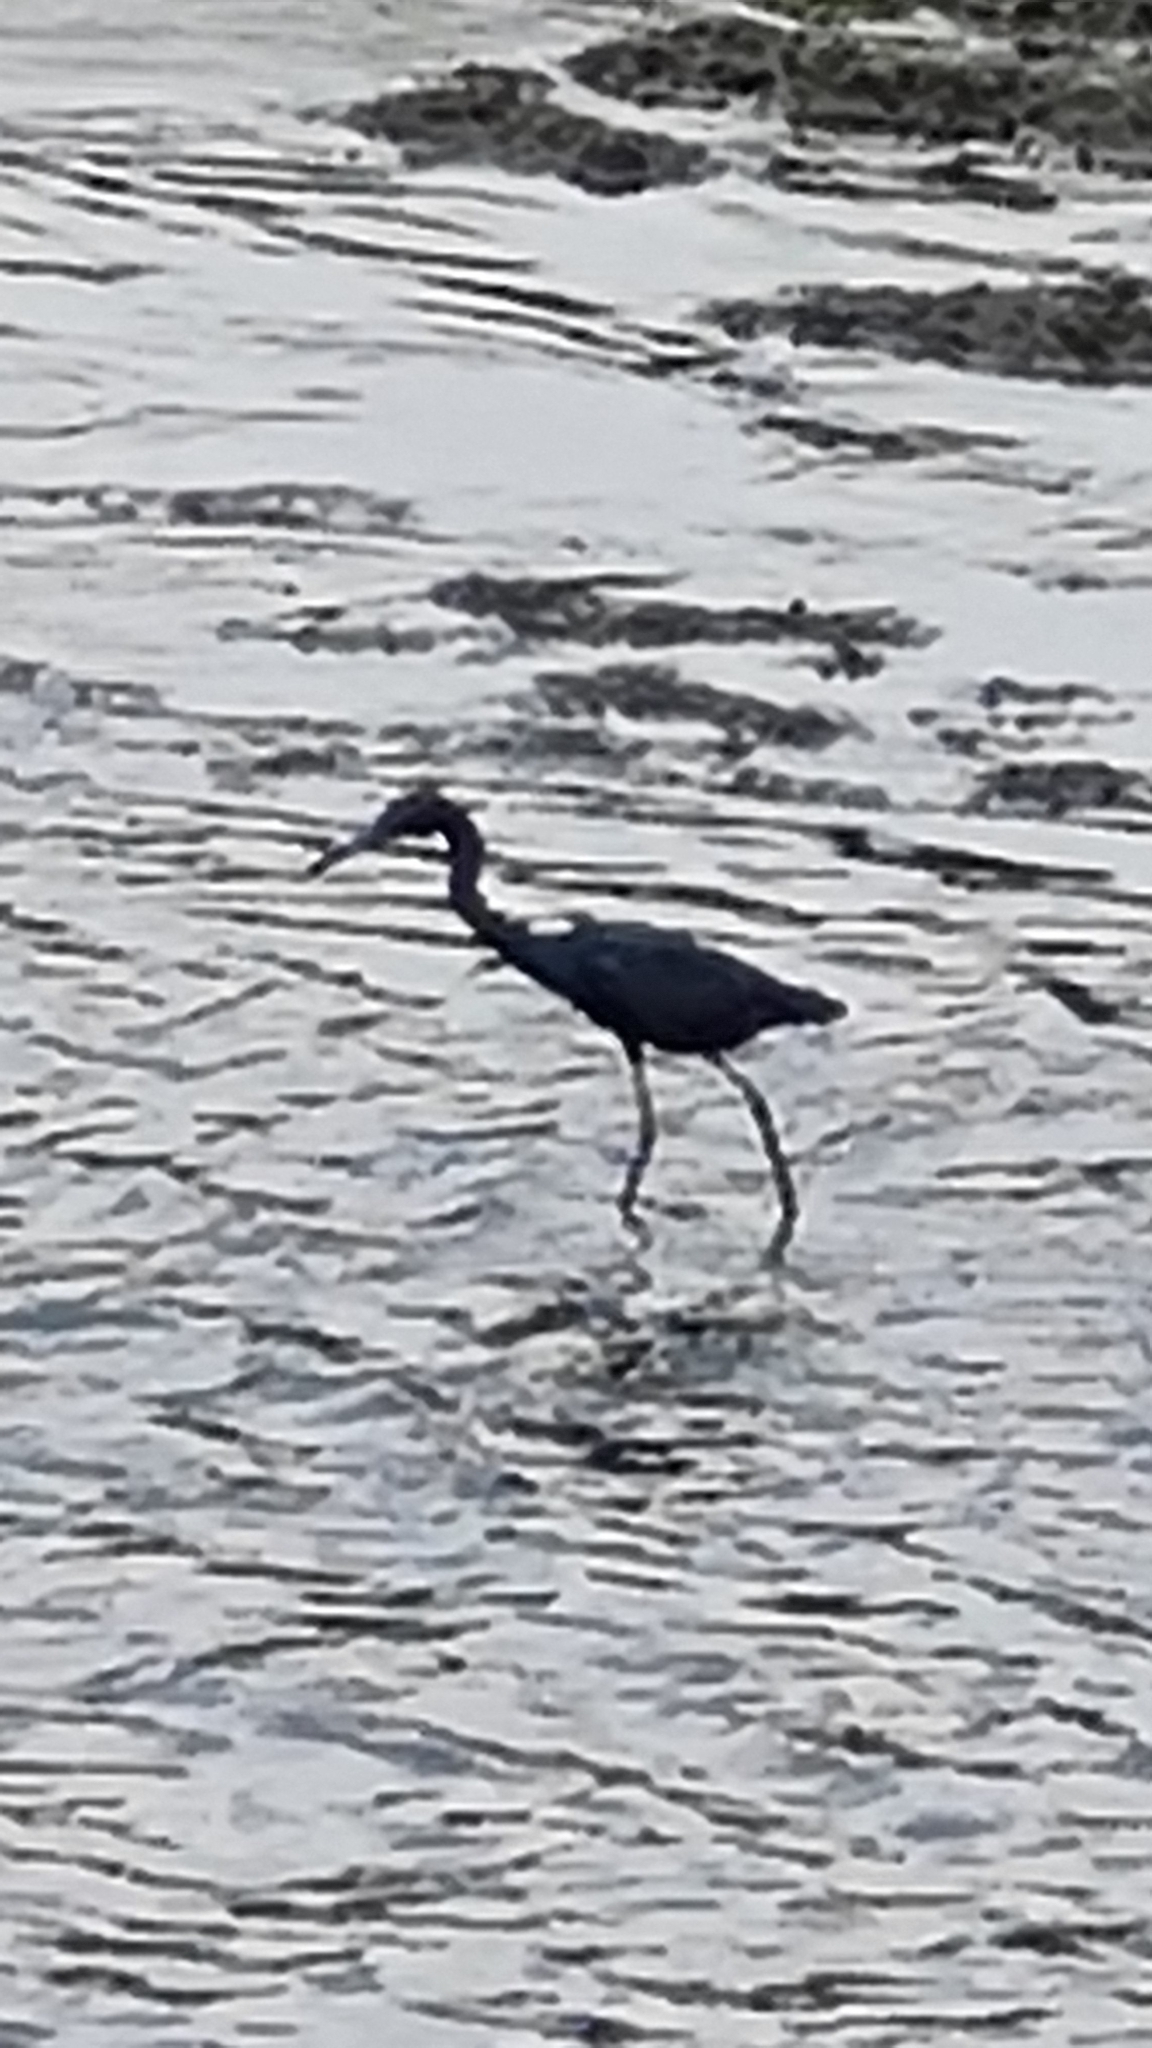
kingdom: Animalia
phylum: Chordata
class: Aves
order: Pelecaniformes
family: Ardeidae
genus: Egretta
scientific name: Egretta caerulea
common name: Little blue heron
